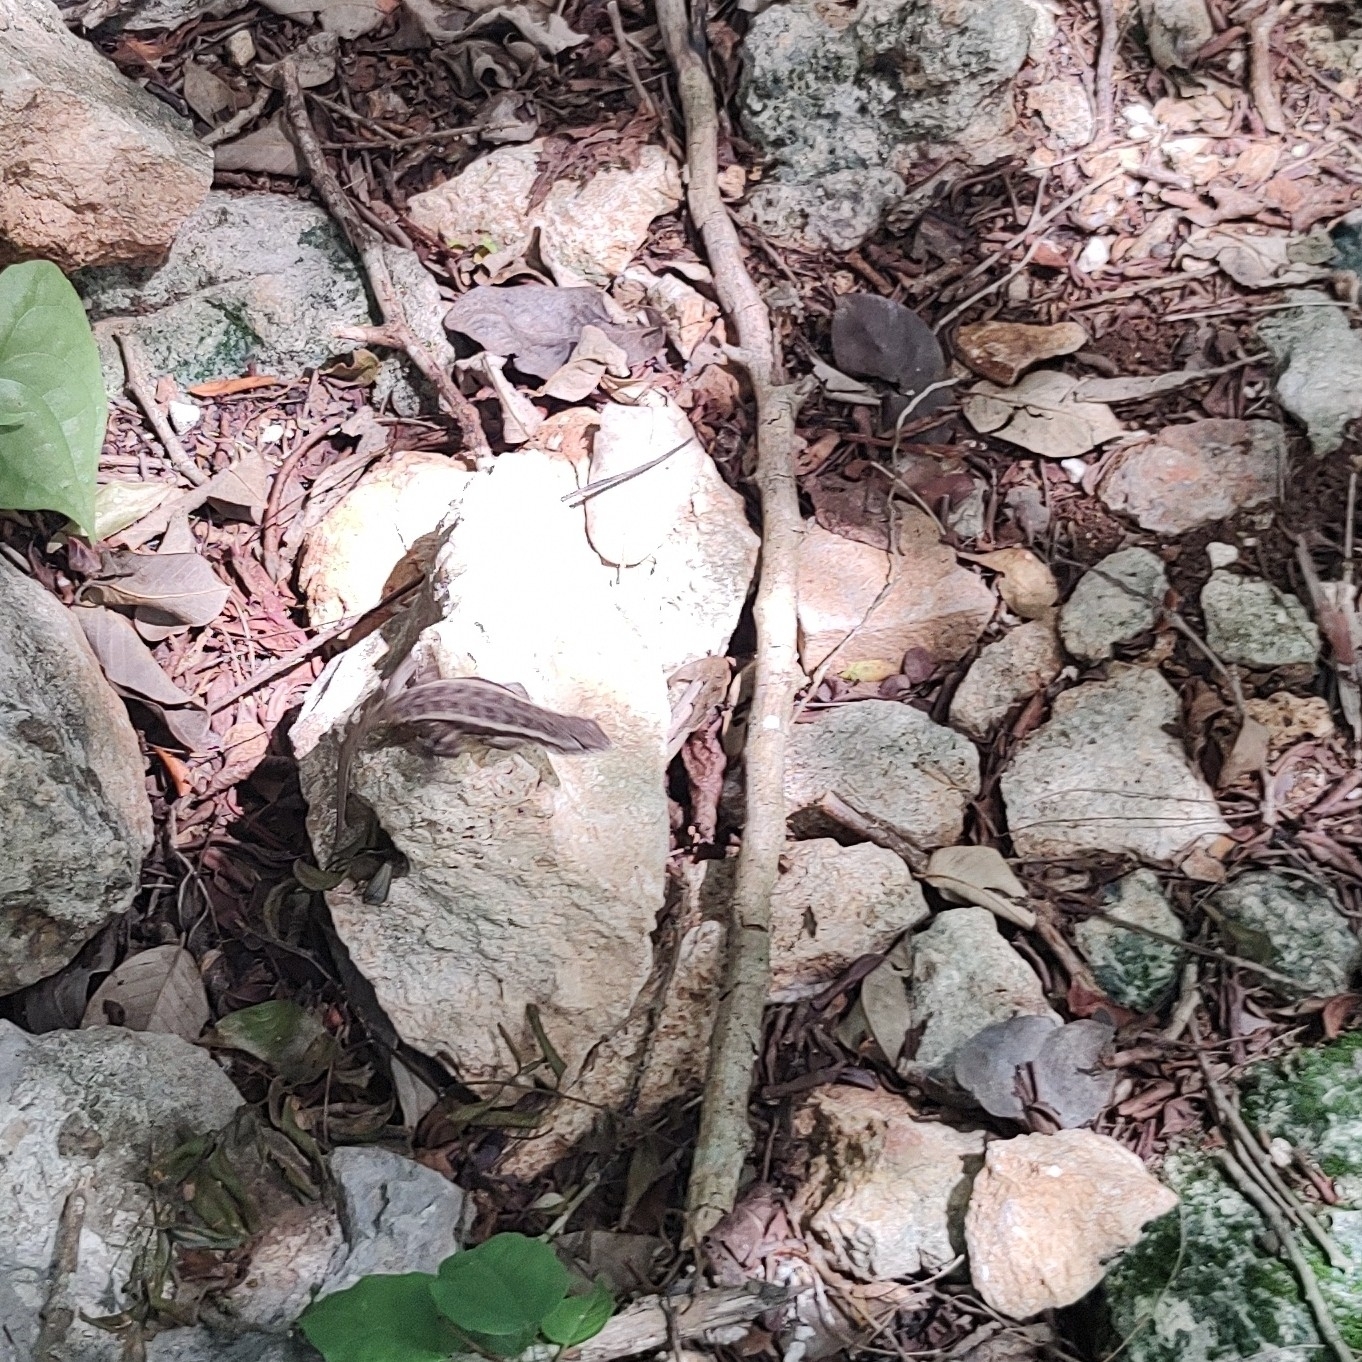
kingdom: Animalia
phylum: Chordata
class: Squamata
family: Phrynosomatidae
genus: Sceloporus
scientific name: Sceloporus chrysostictus
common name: Yellow-spotted spiny lizard
